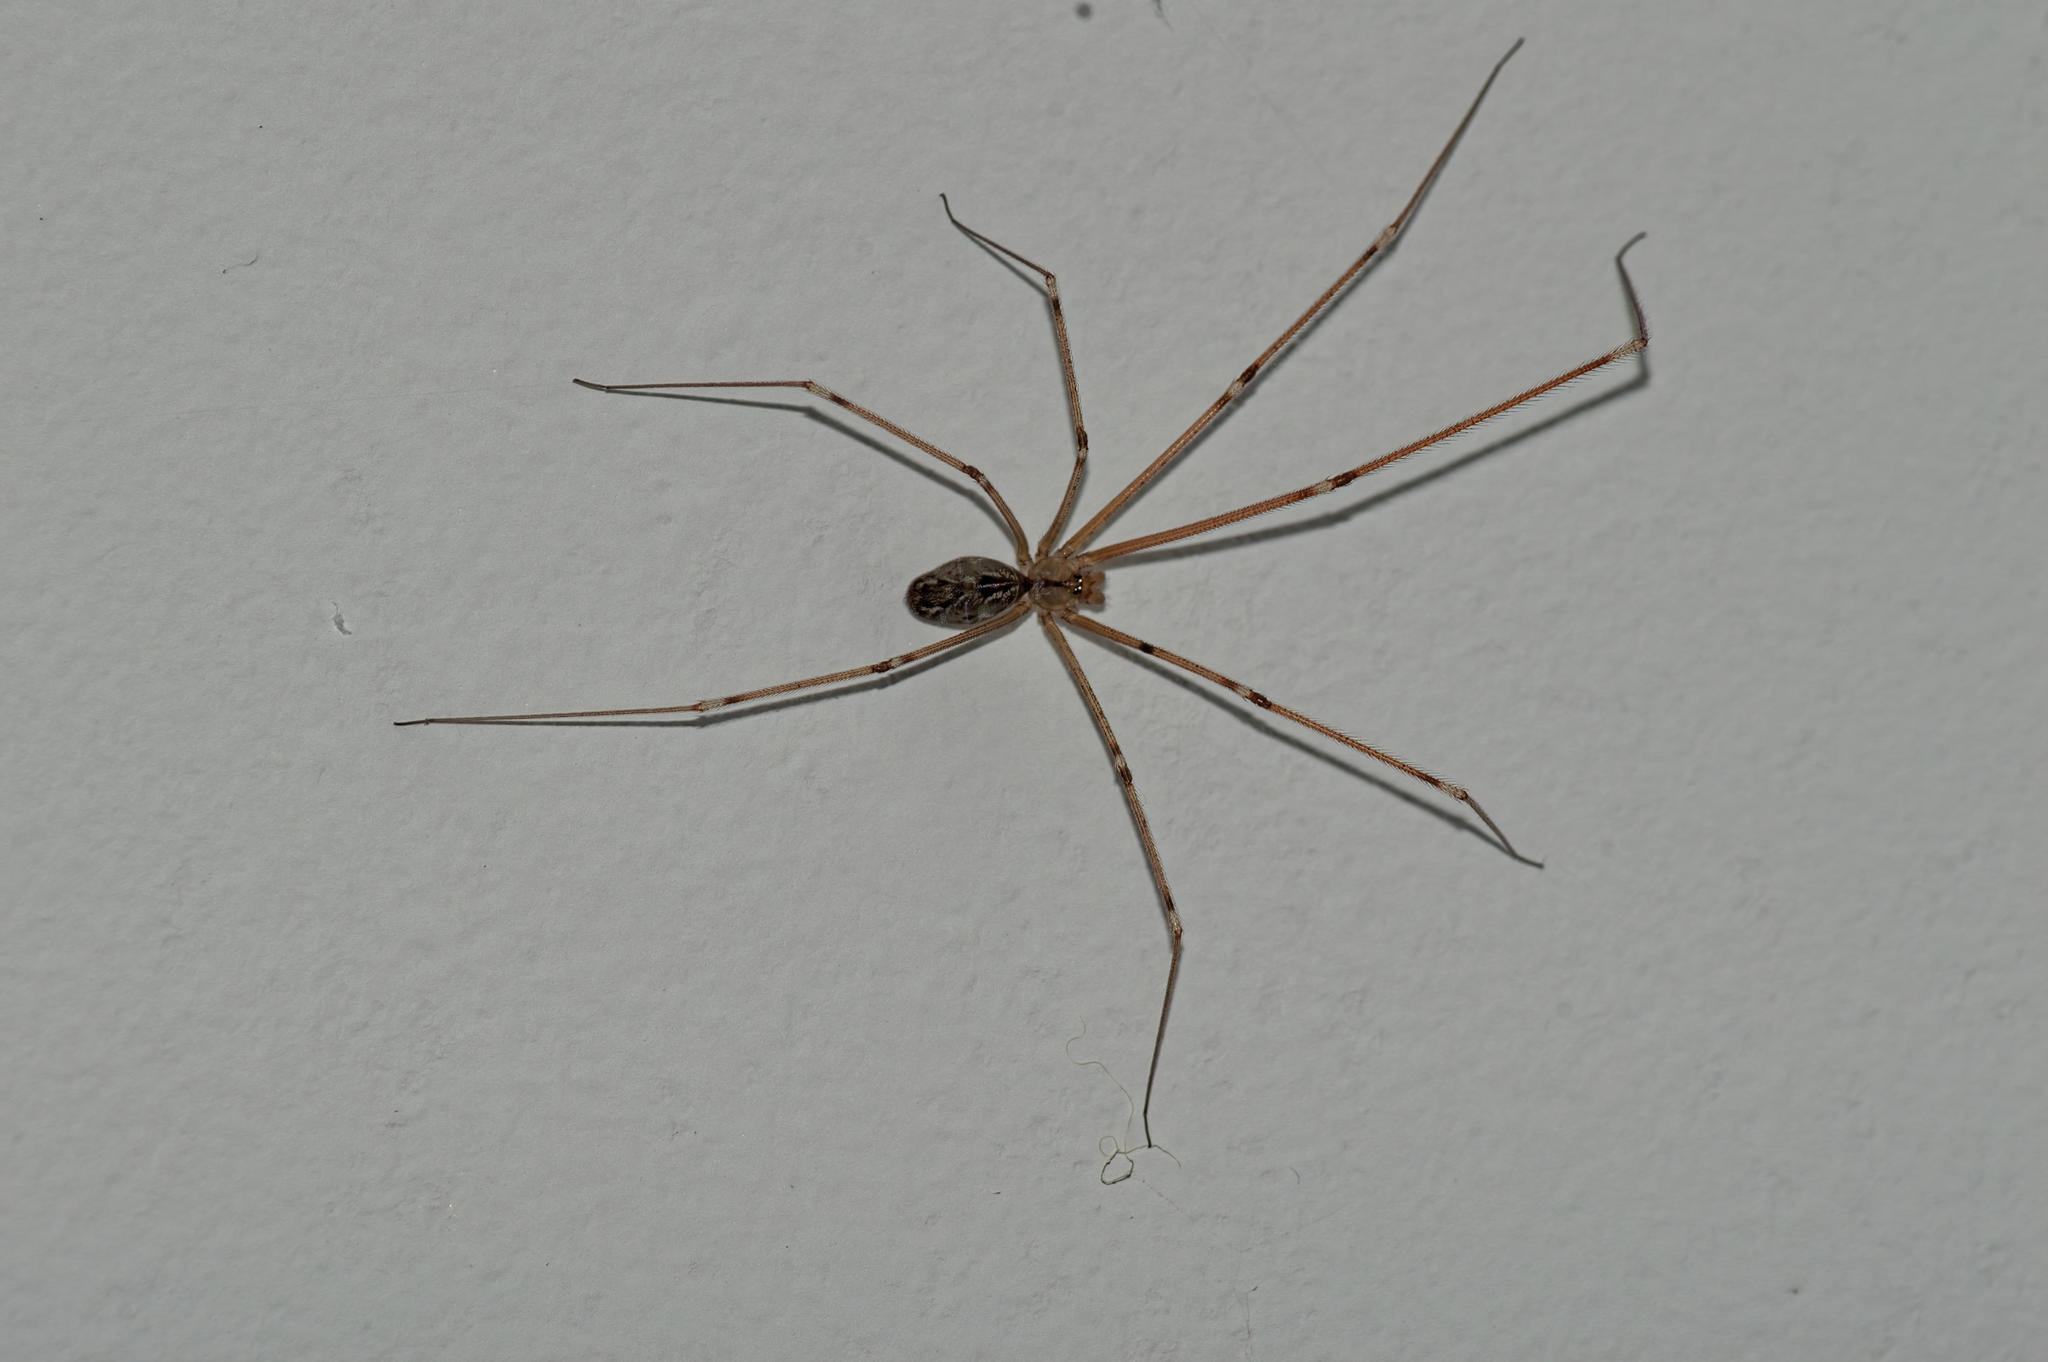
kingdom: Animalia
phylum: Arthropoda
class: Arachnida
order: Araneae
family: Pholcidae
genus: Holocnemus
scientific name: Holocnemus pluchei
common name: Marbled cellar spider
